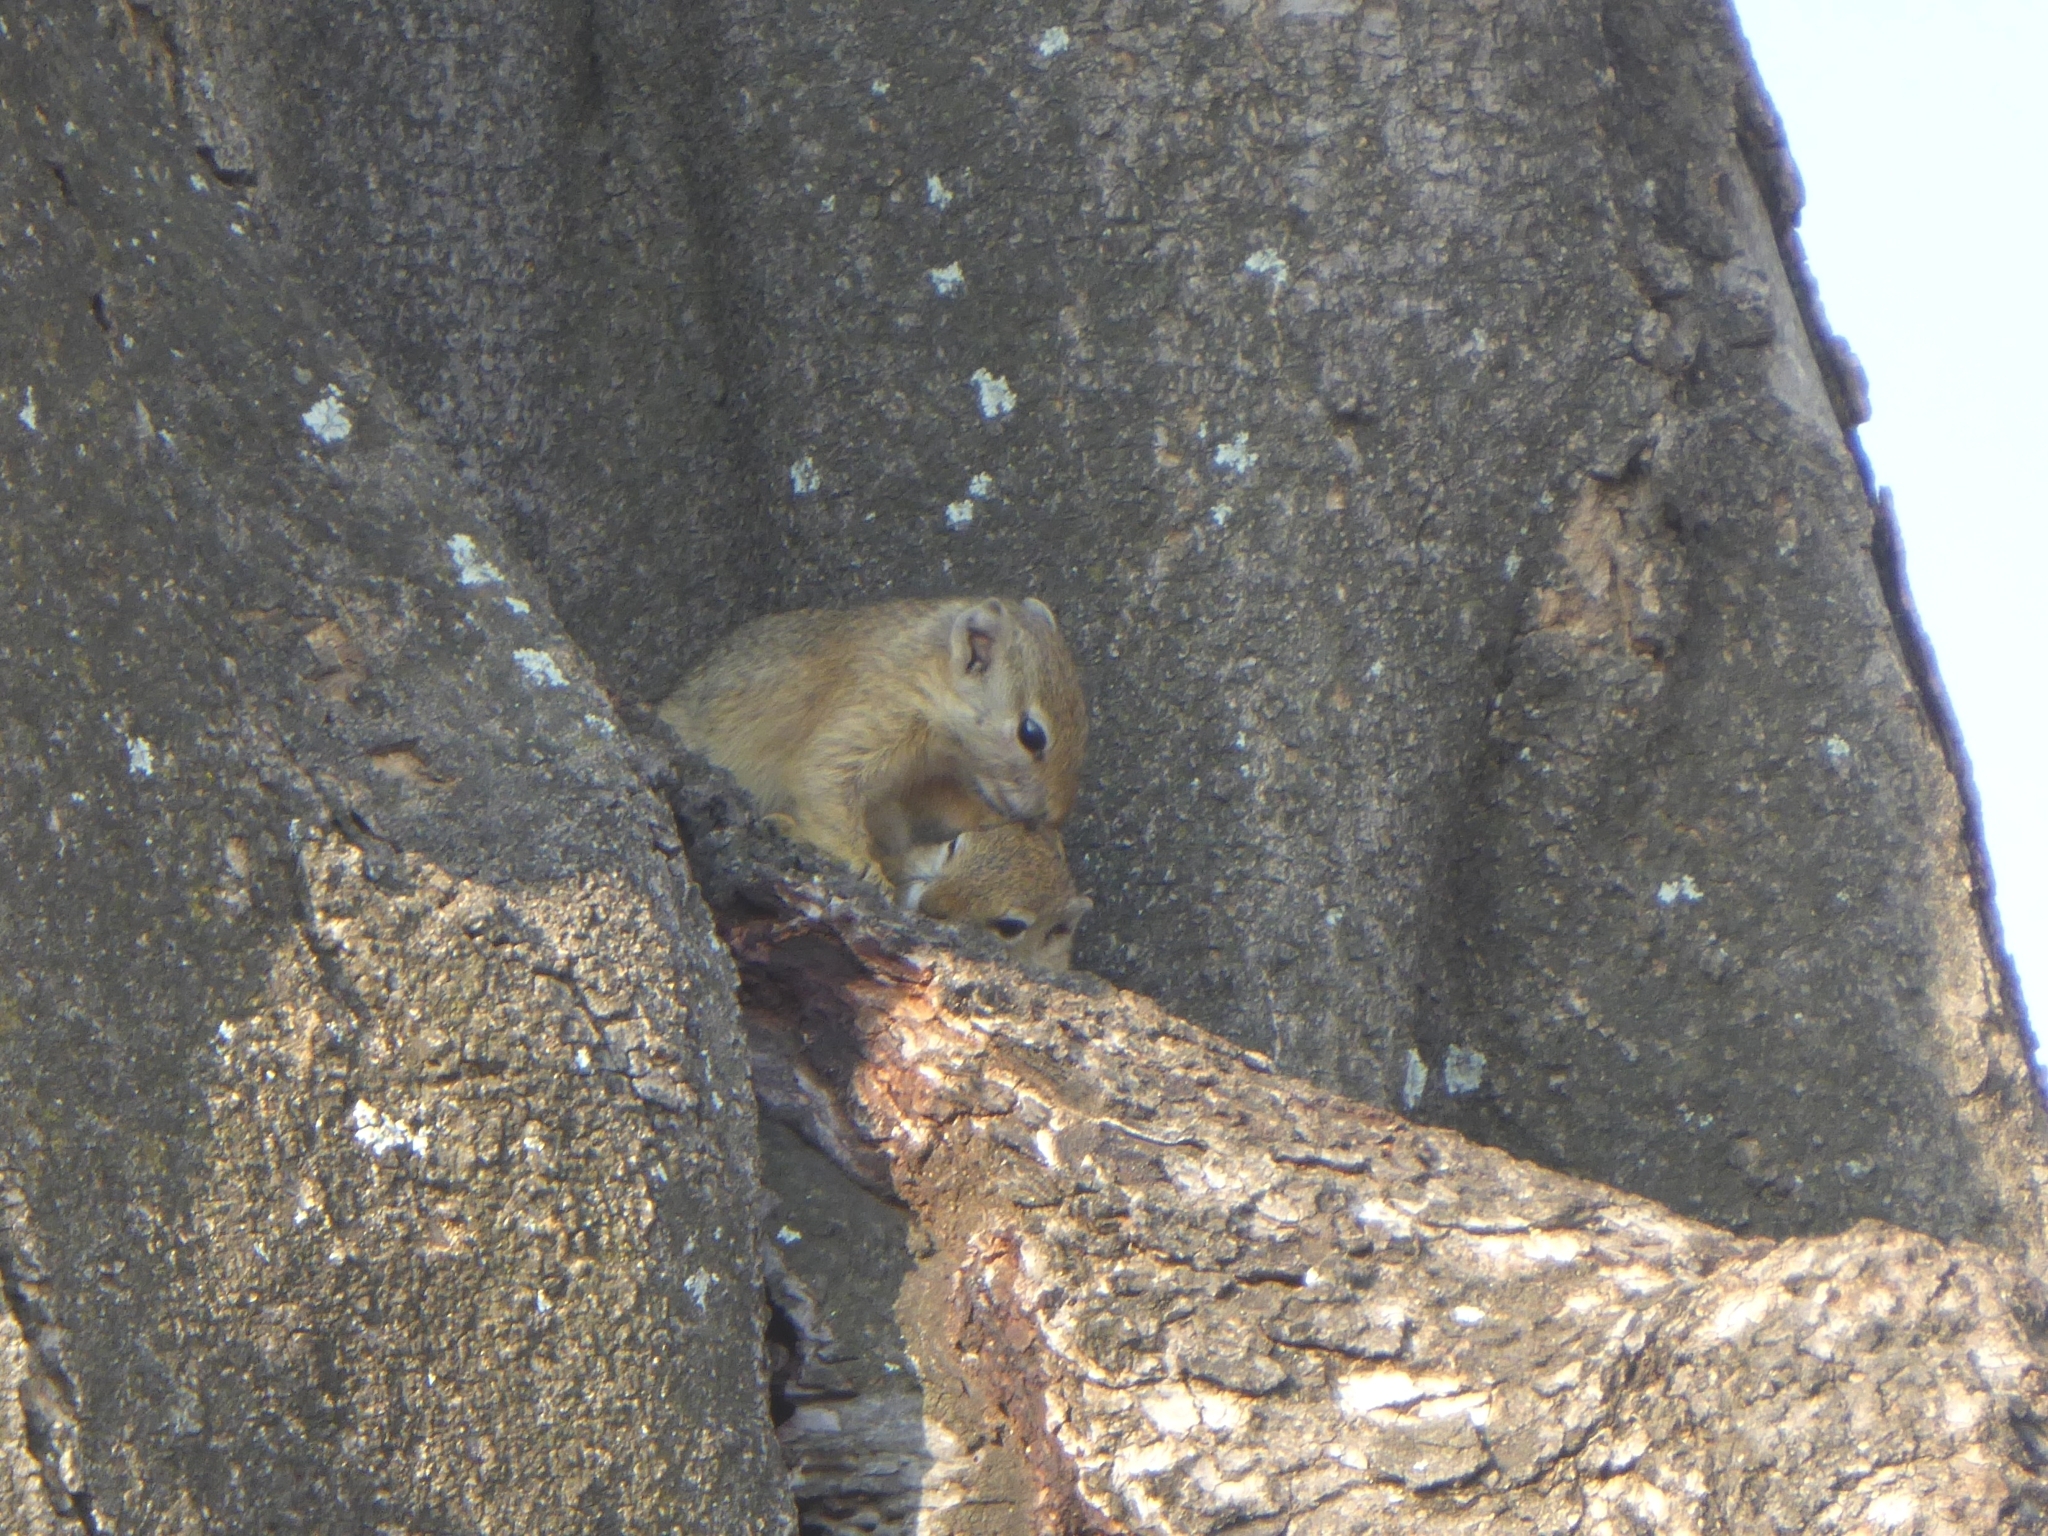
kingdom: Animalia
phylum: Chordata
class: Mammalia
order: Rodentia
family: Sciuridae
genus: Paraxerus
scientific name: Paraxerus cepapi
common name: Smith's bush squirrel
